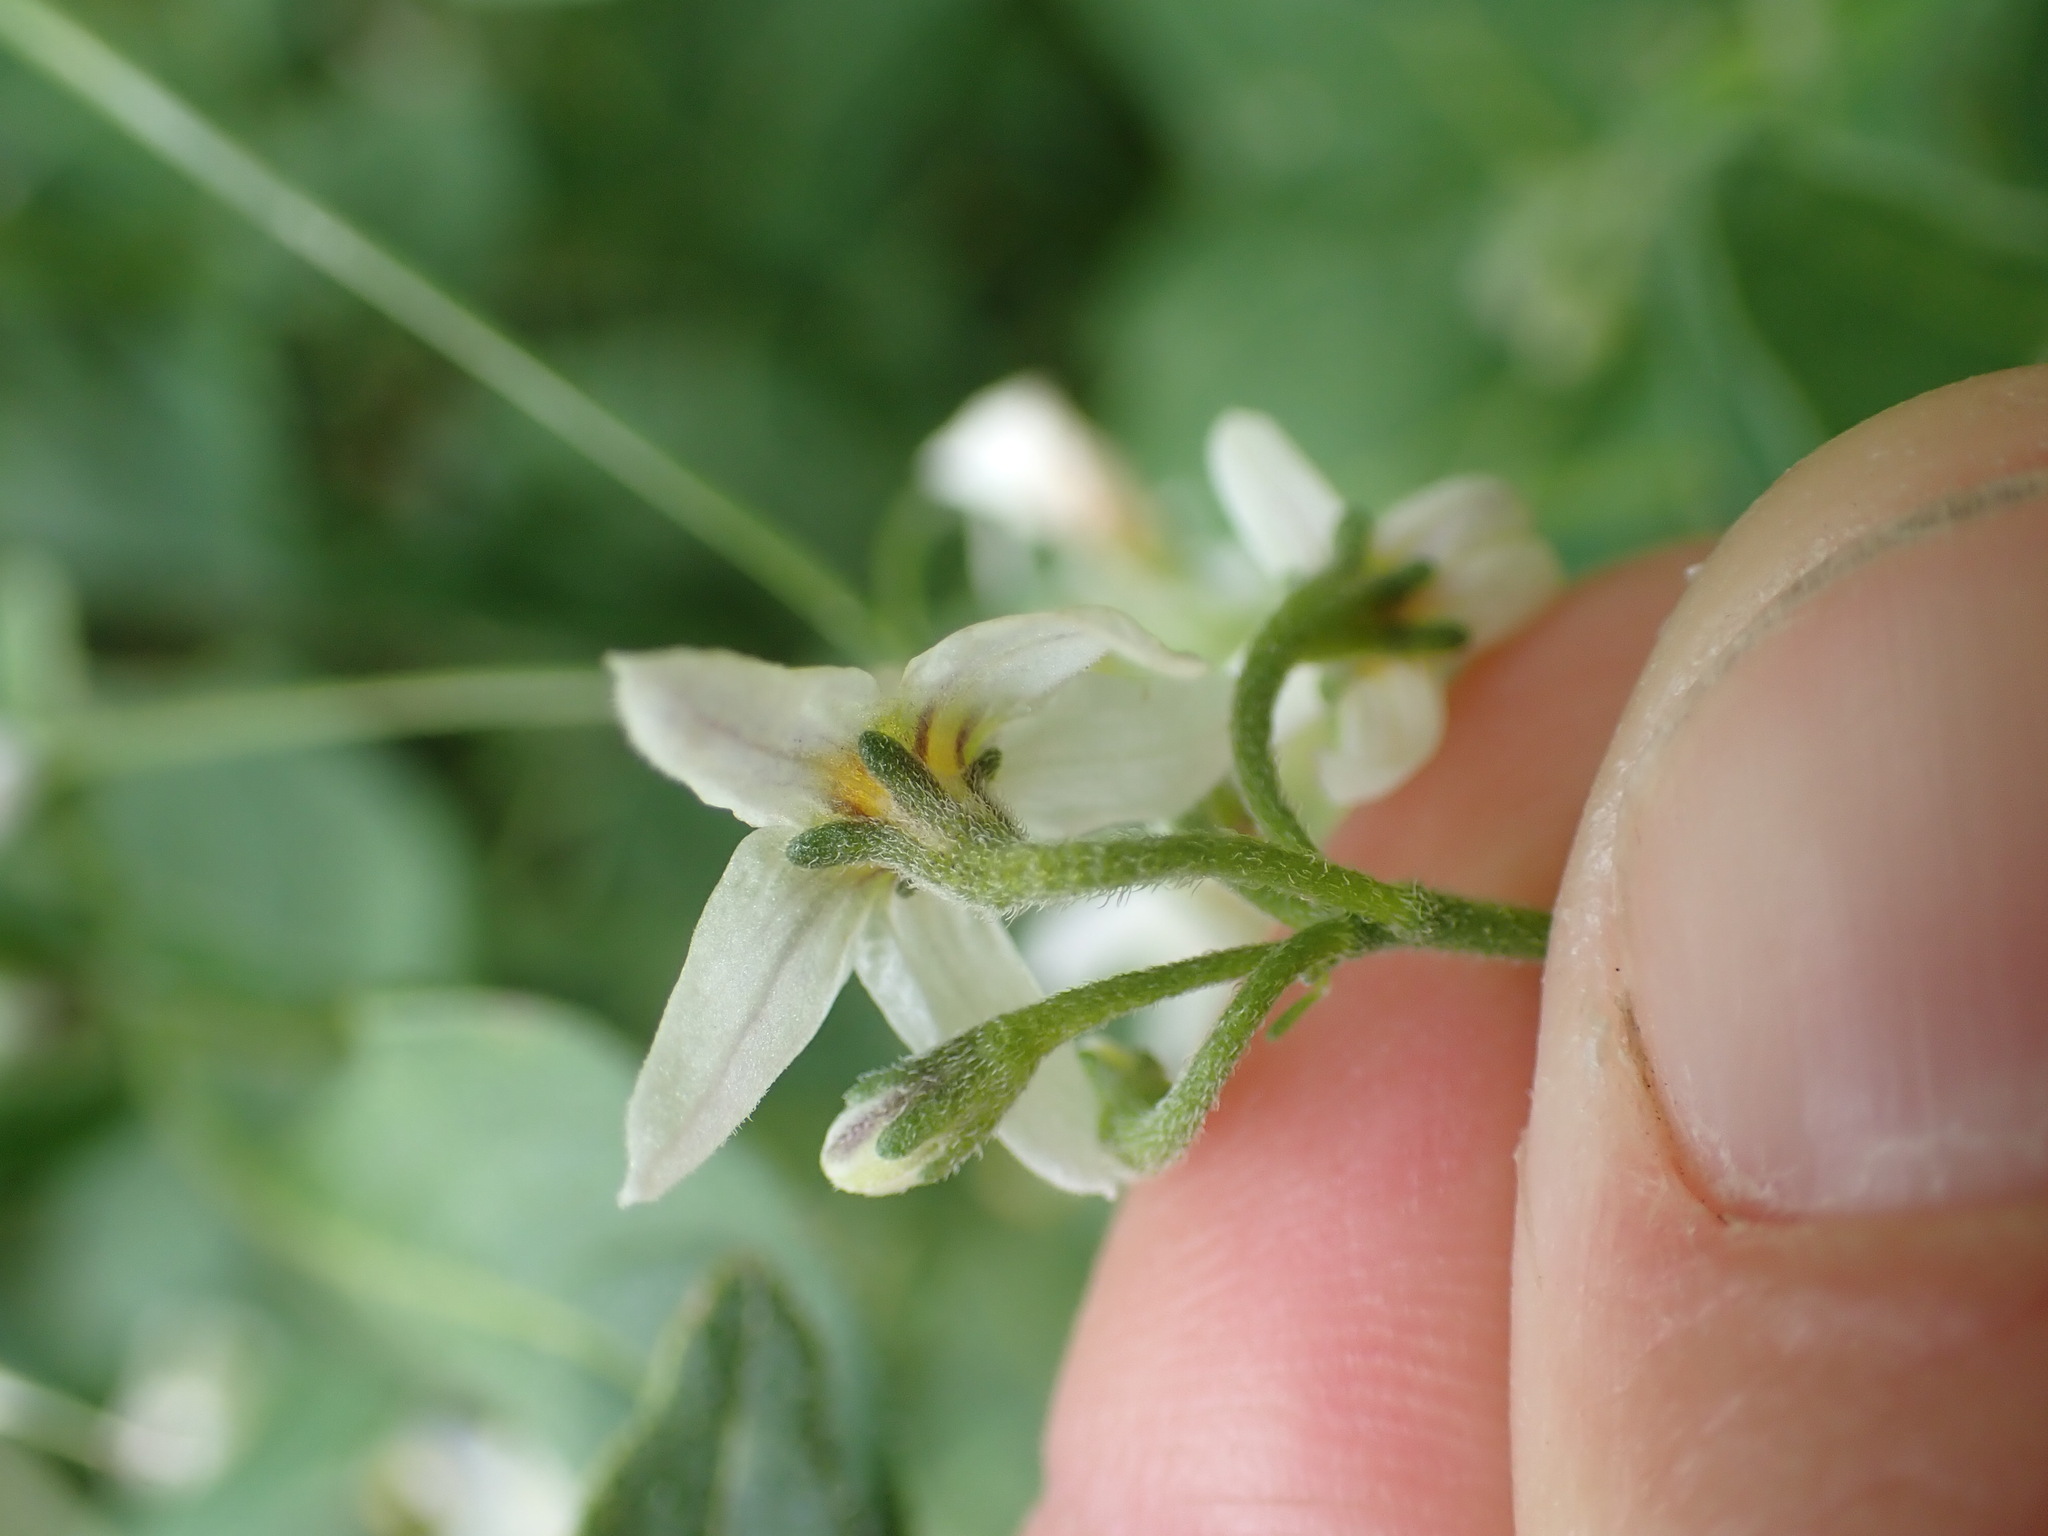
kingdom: Plantae
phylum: Tracheophyta
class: Magnoliopsida
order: Solanales
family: Solanaceae
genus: Solanum
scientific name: Solanum chenopodioides
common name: Tall nightshade
